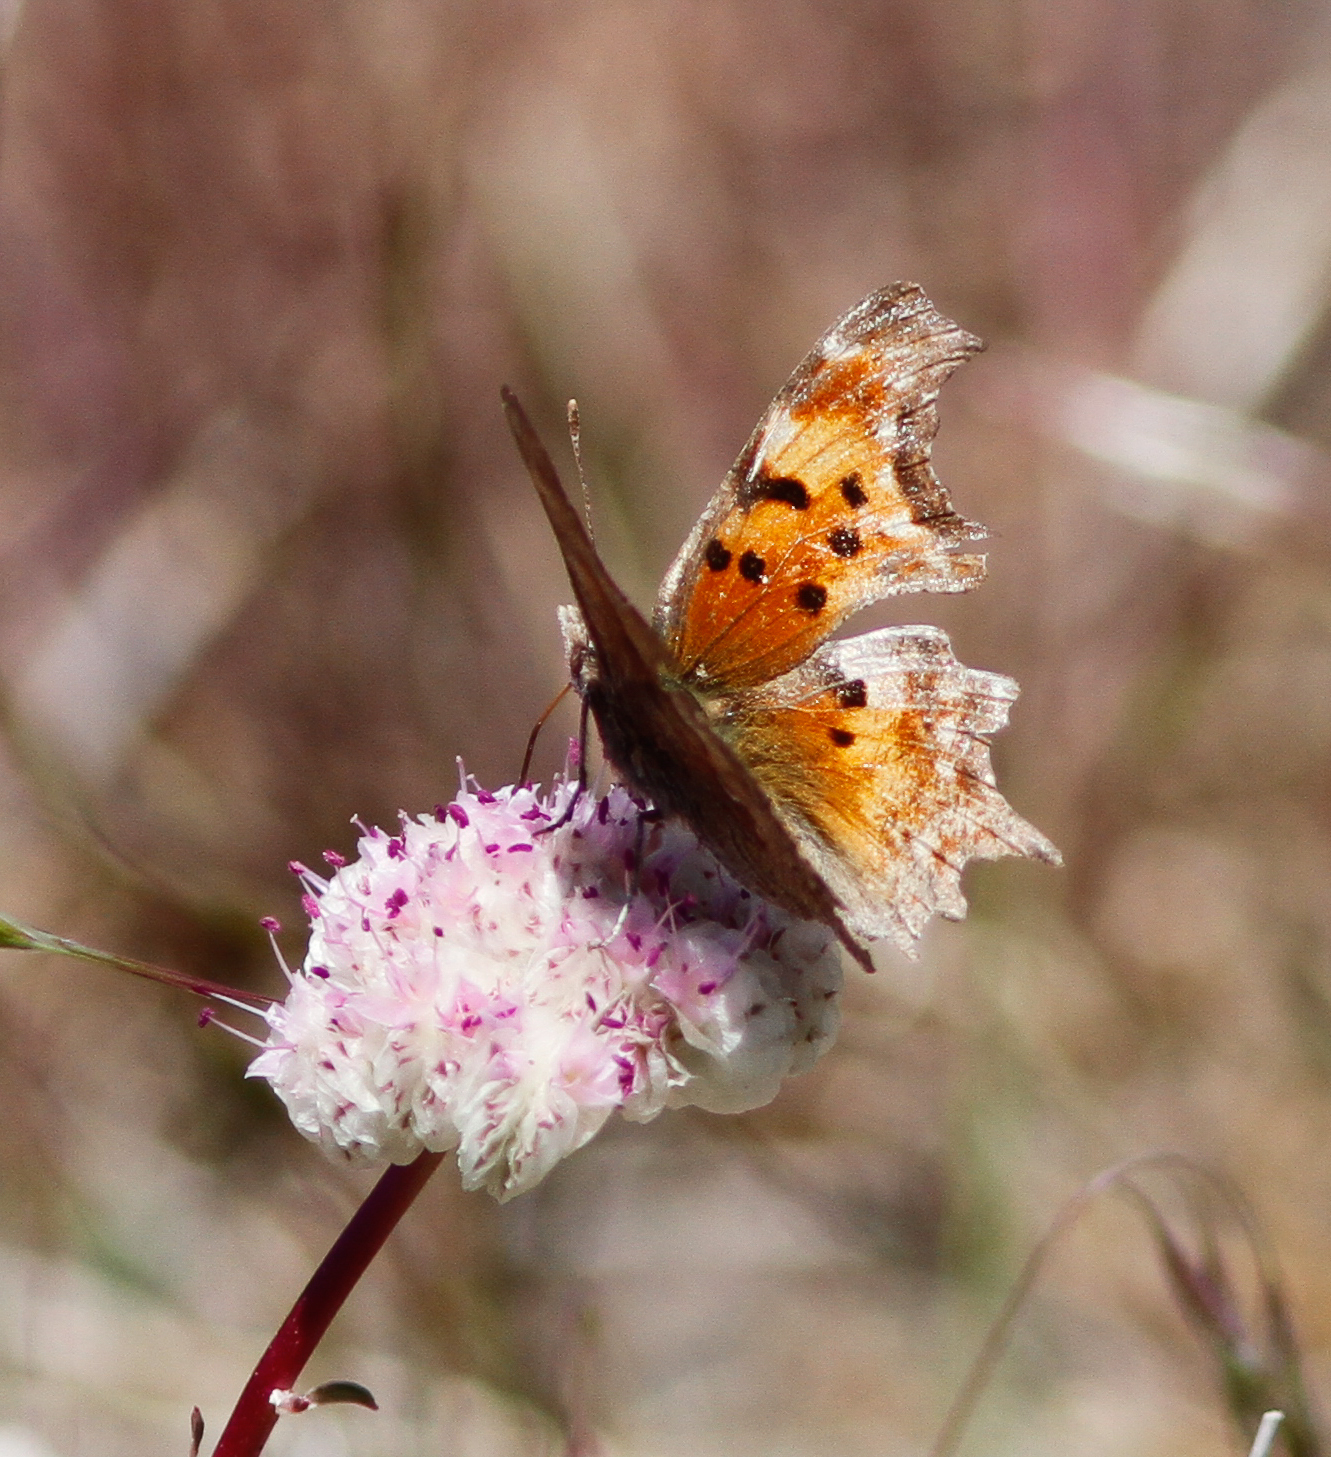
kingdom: Animalia
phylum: Arthropoda
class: Insecta
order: Lepidoptera
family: Nymphalidae
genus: Polygonia
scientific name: Polygonia gracilis
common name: Hoary comma
